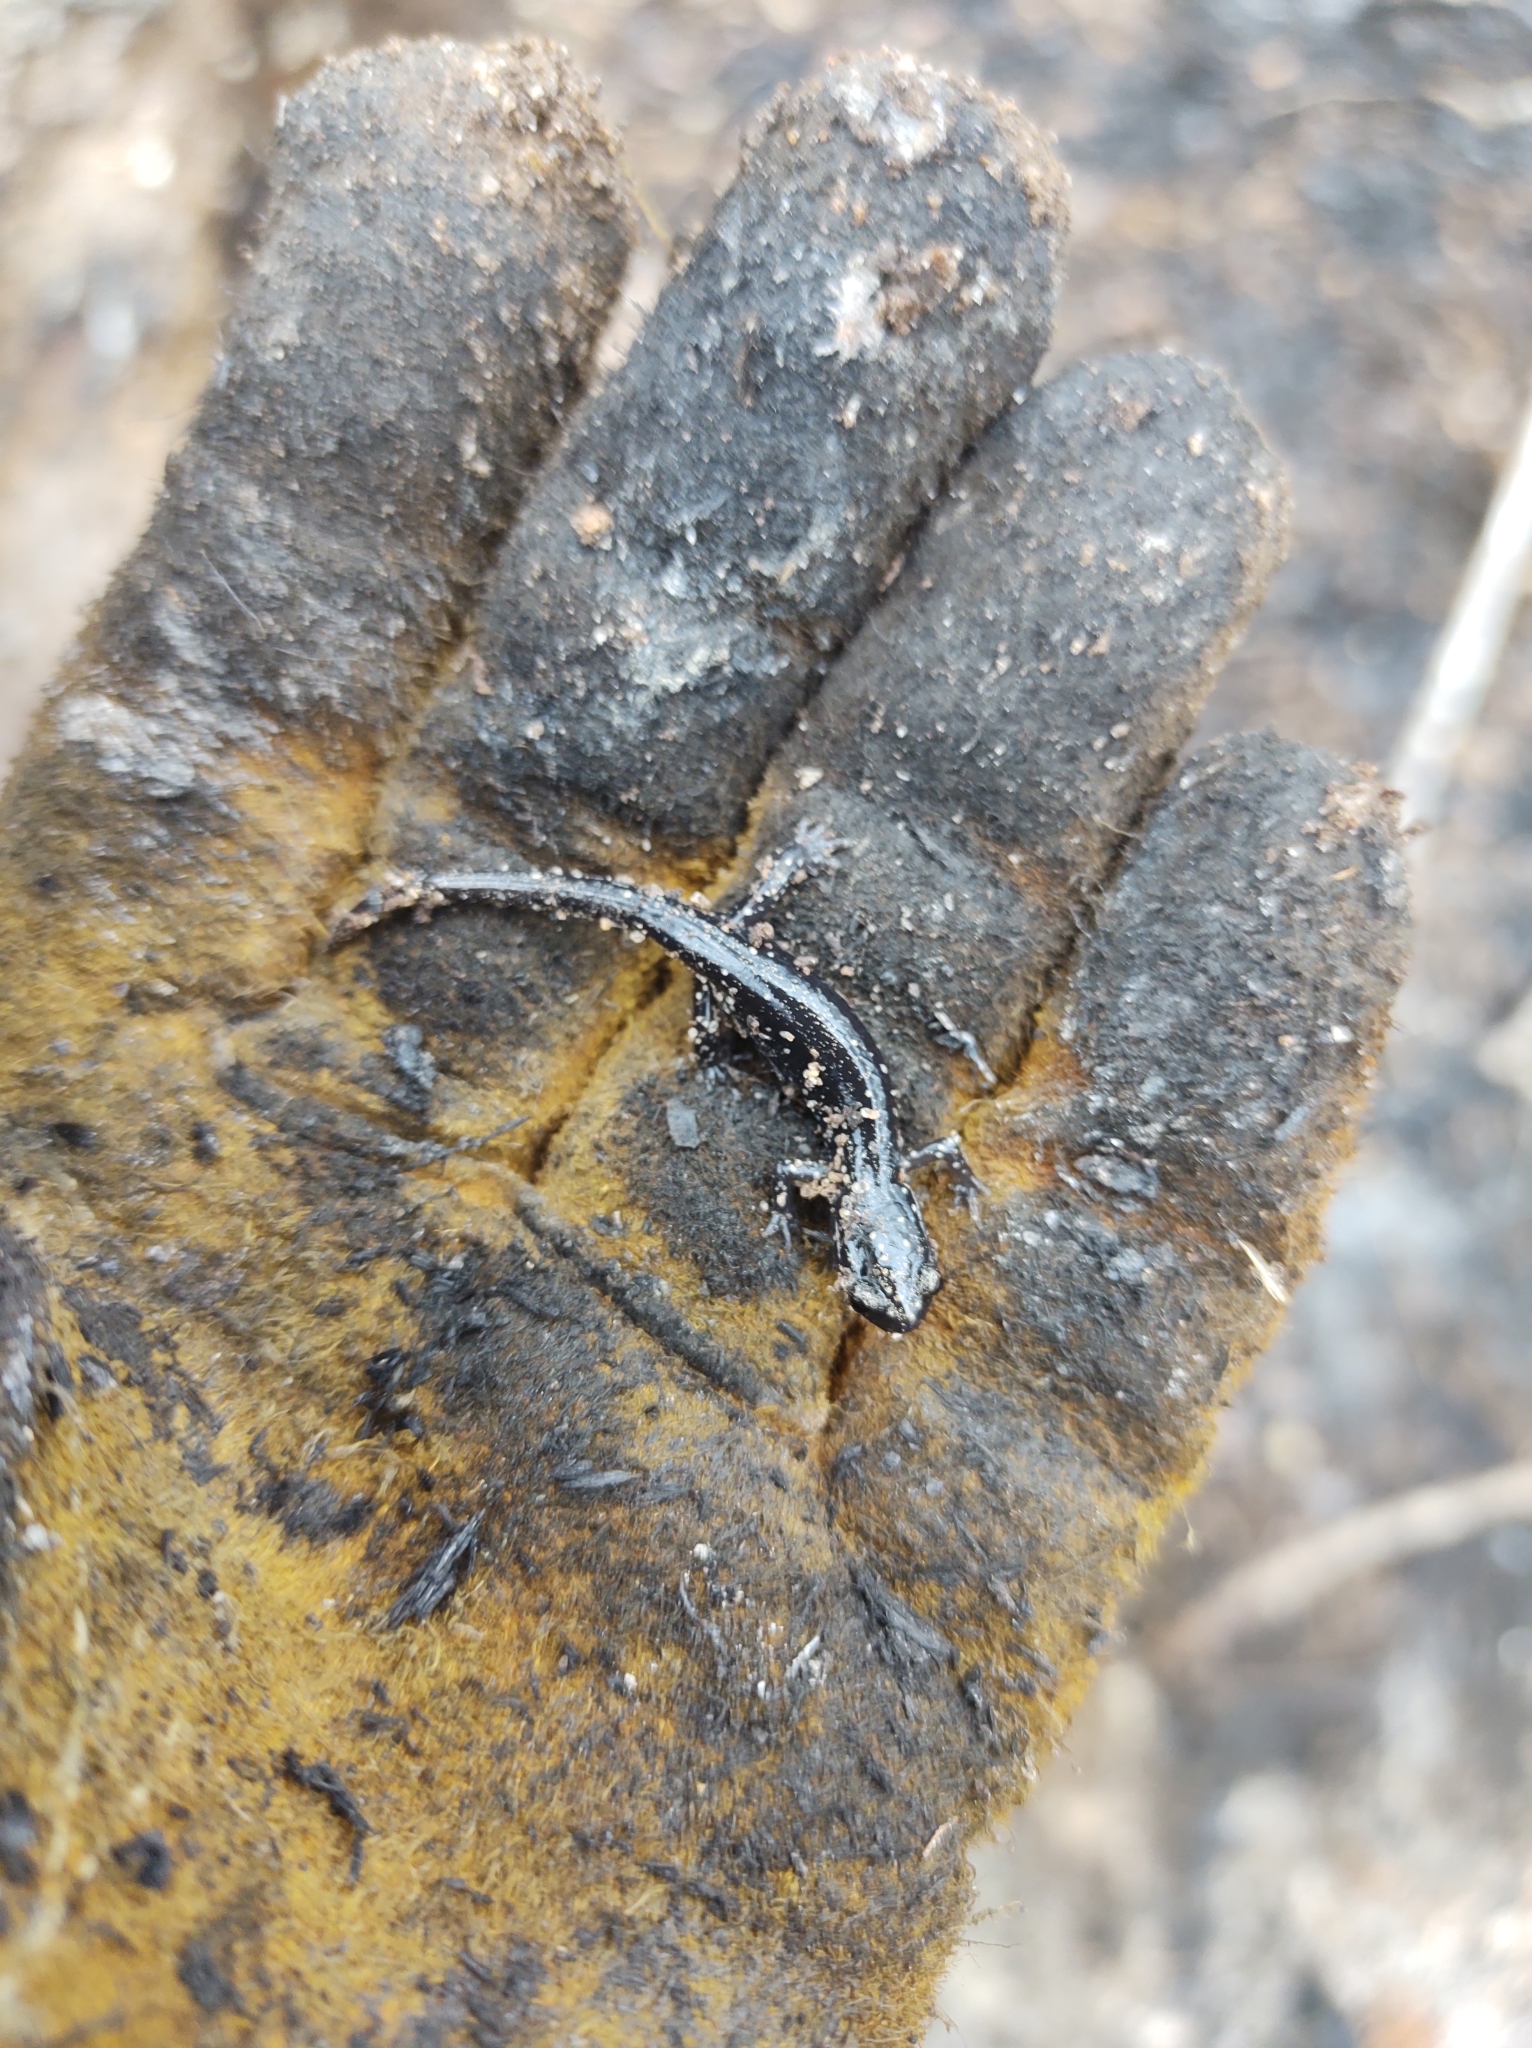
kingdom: Animalia
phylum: Chordata
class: Amphibia
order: Caudata
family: Plethodontidae
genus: Plethodon
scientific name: Plethodon glutinosus
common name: Northern slimy salamander
